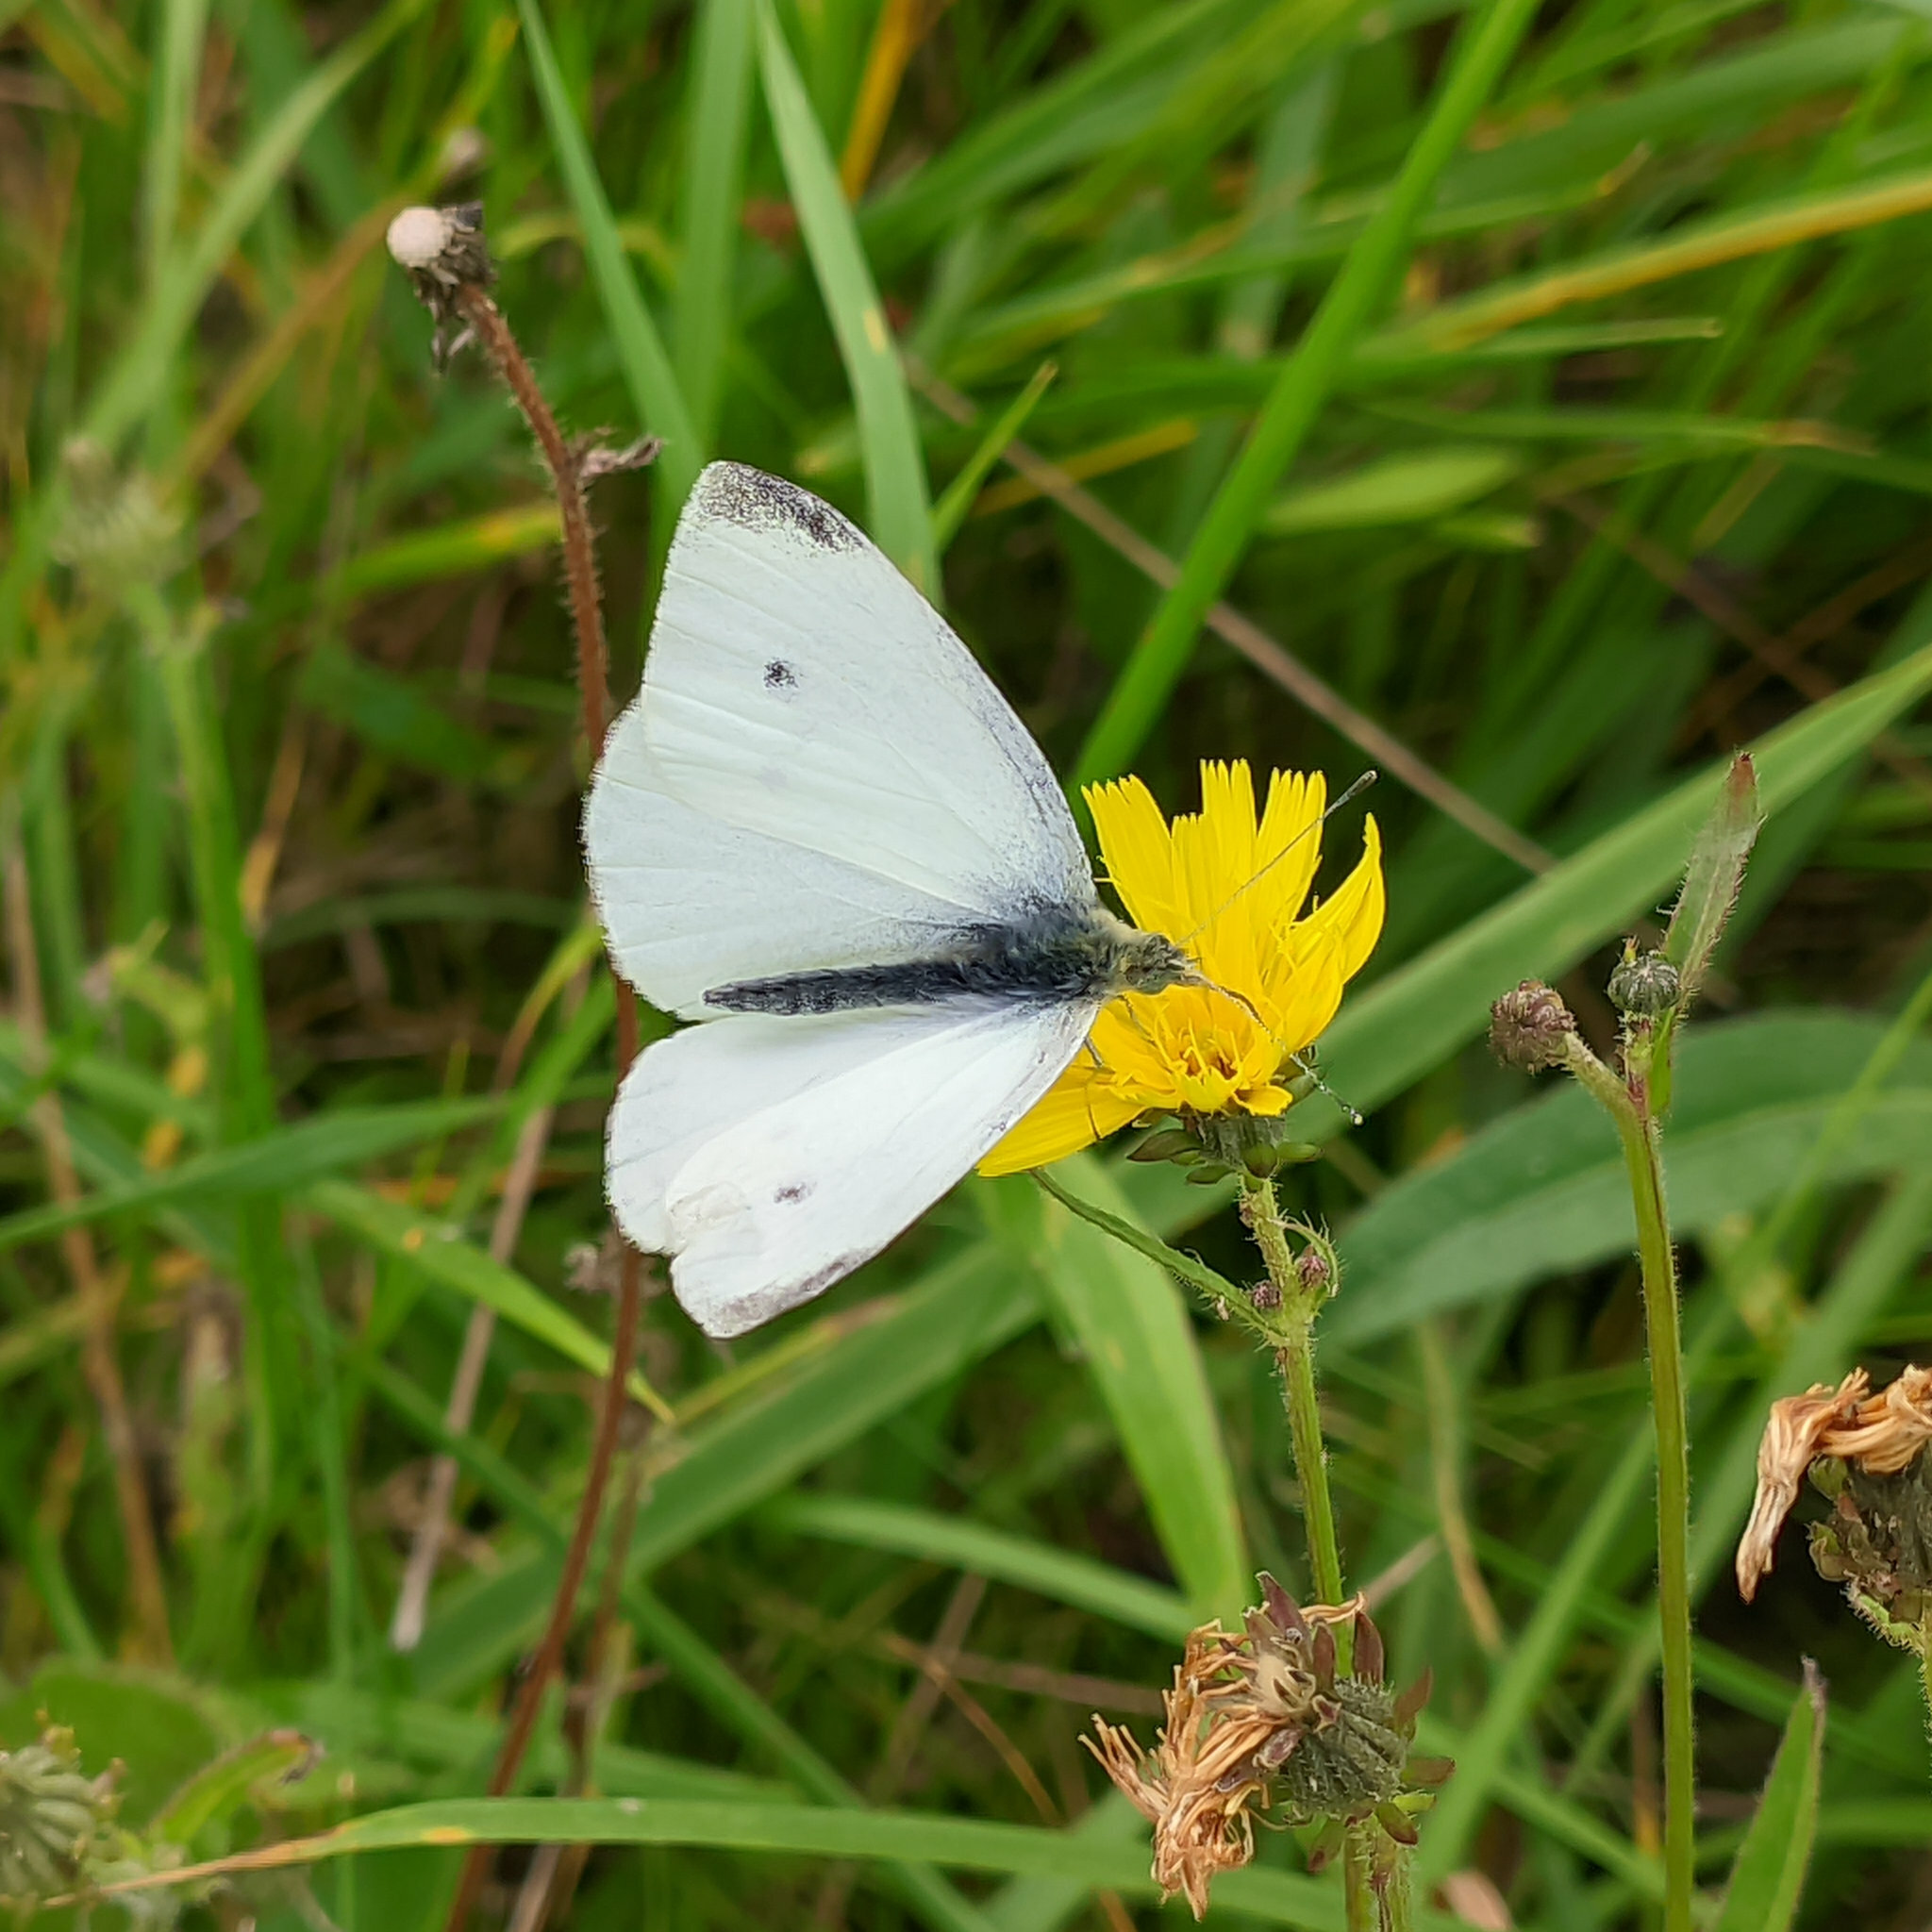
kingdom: Animalia
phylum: Arthropoda
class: Insecta
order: Lepidoptera
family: Pieridae
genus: Pieris
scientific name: Pieris rapae
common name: Small white
